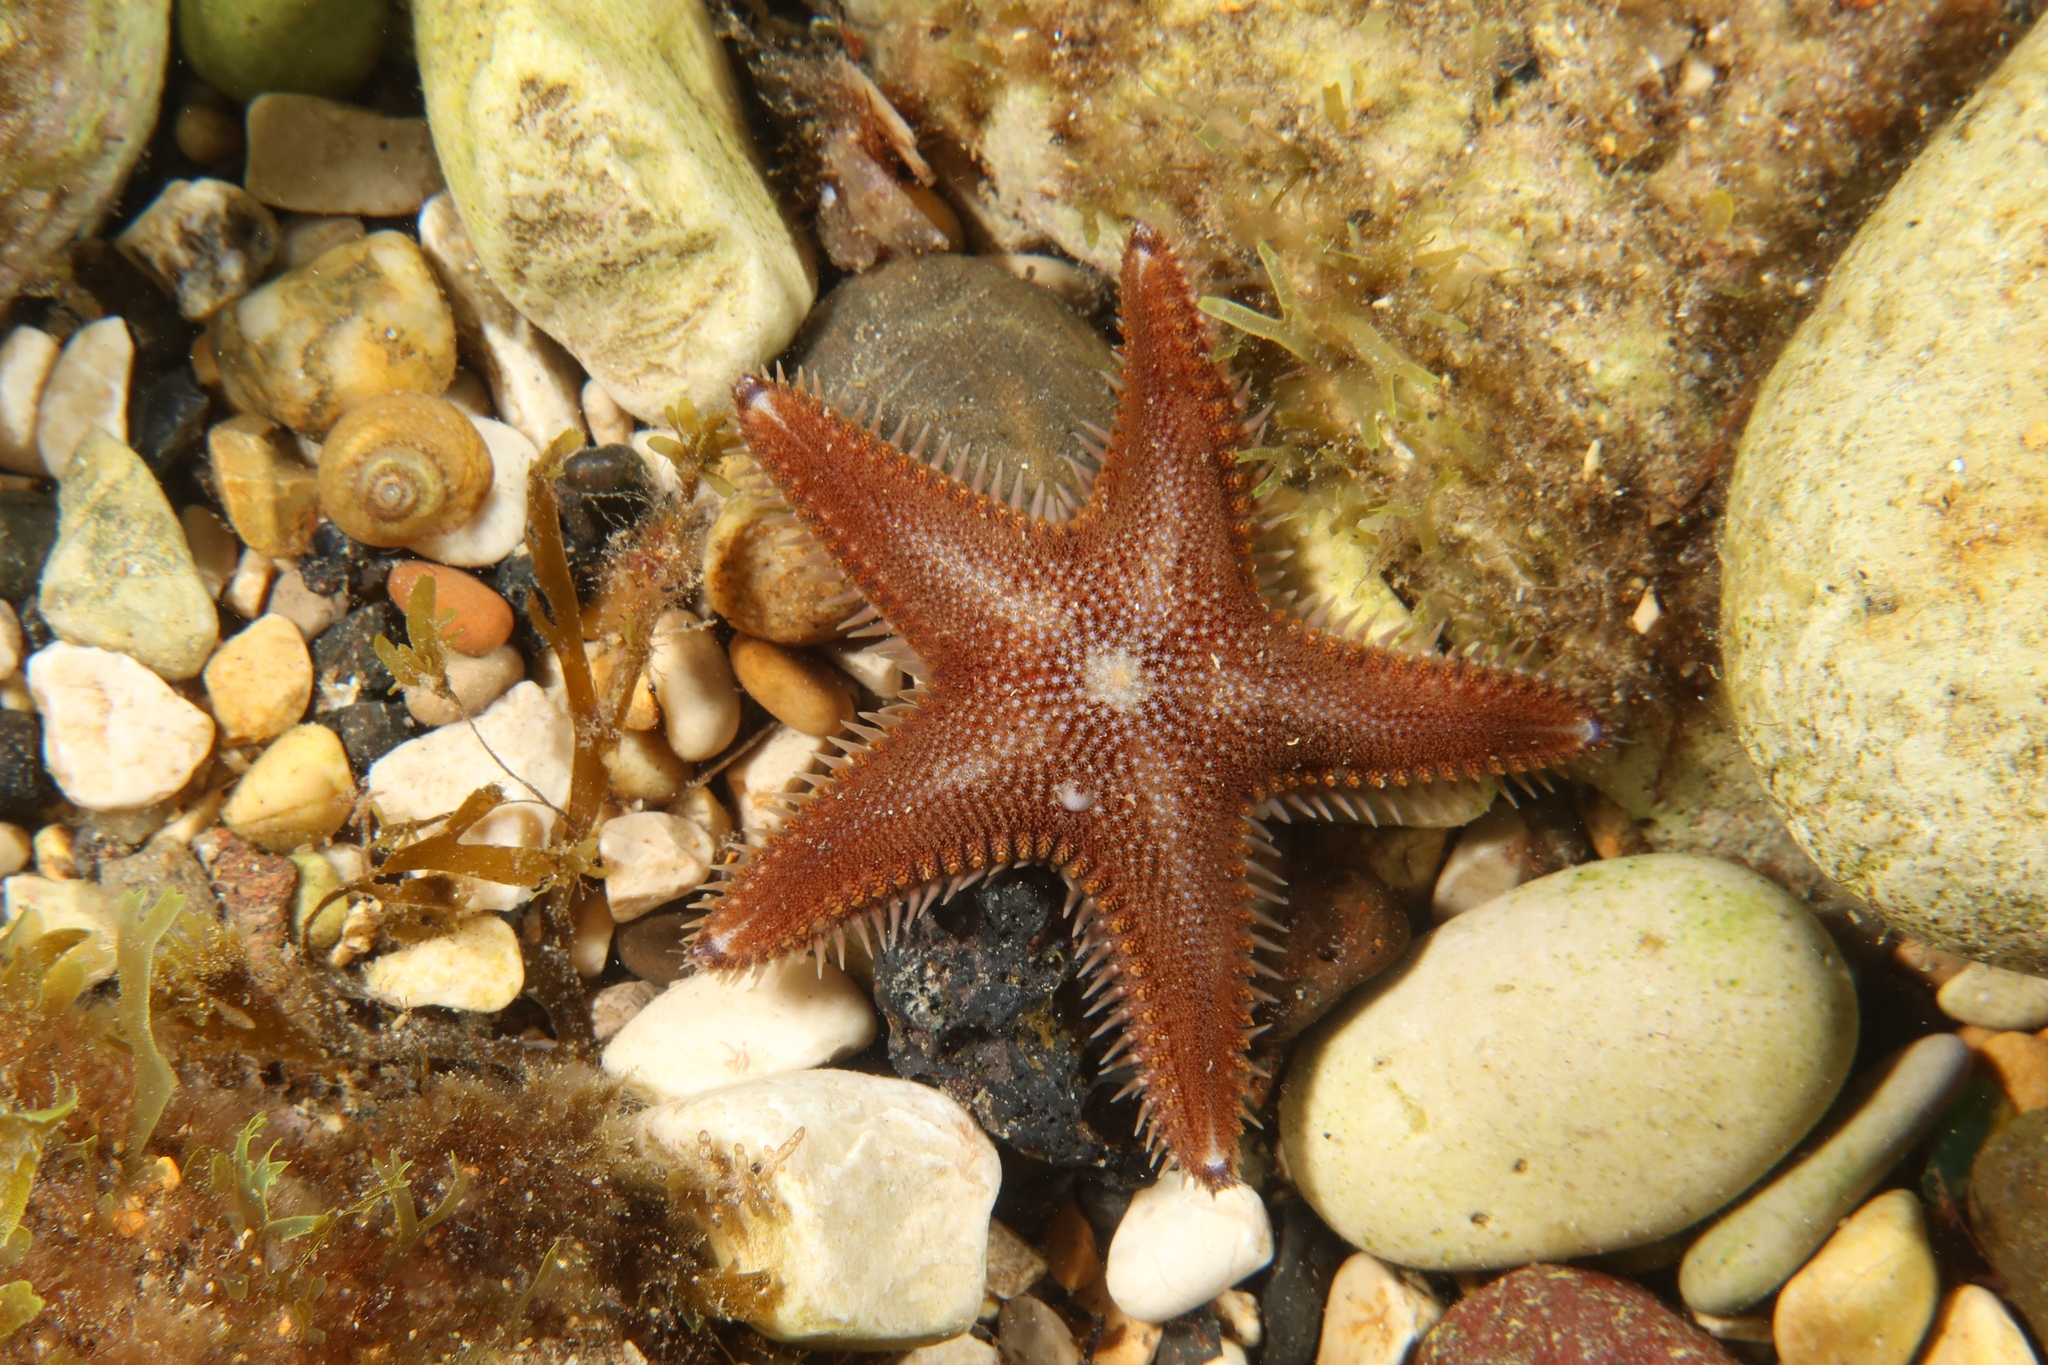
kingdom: Animalia
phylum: Echinodermata
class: Asteroidea
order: Paxillosida
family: Astropectinidae
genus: Astropecten
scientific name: Astropecten spinulosus
